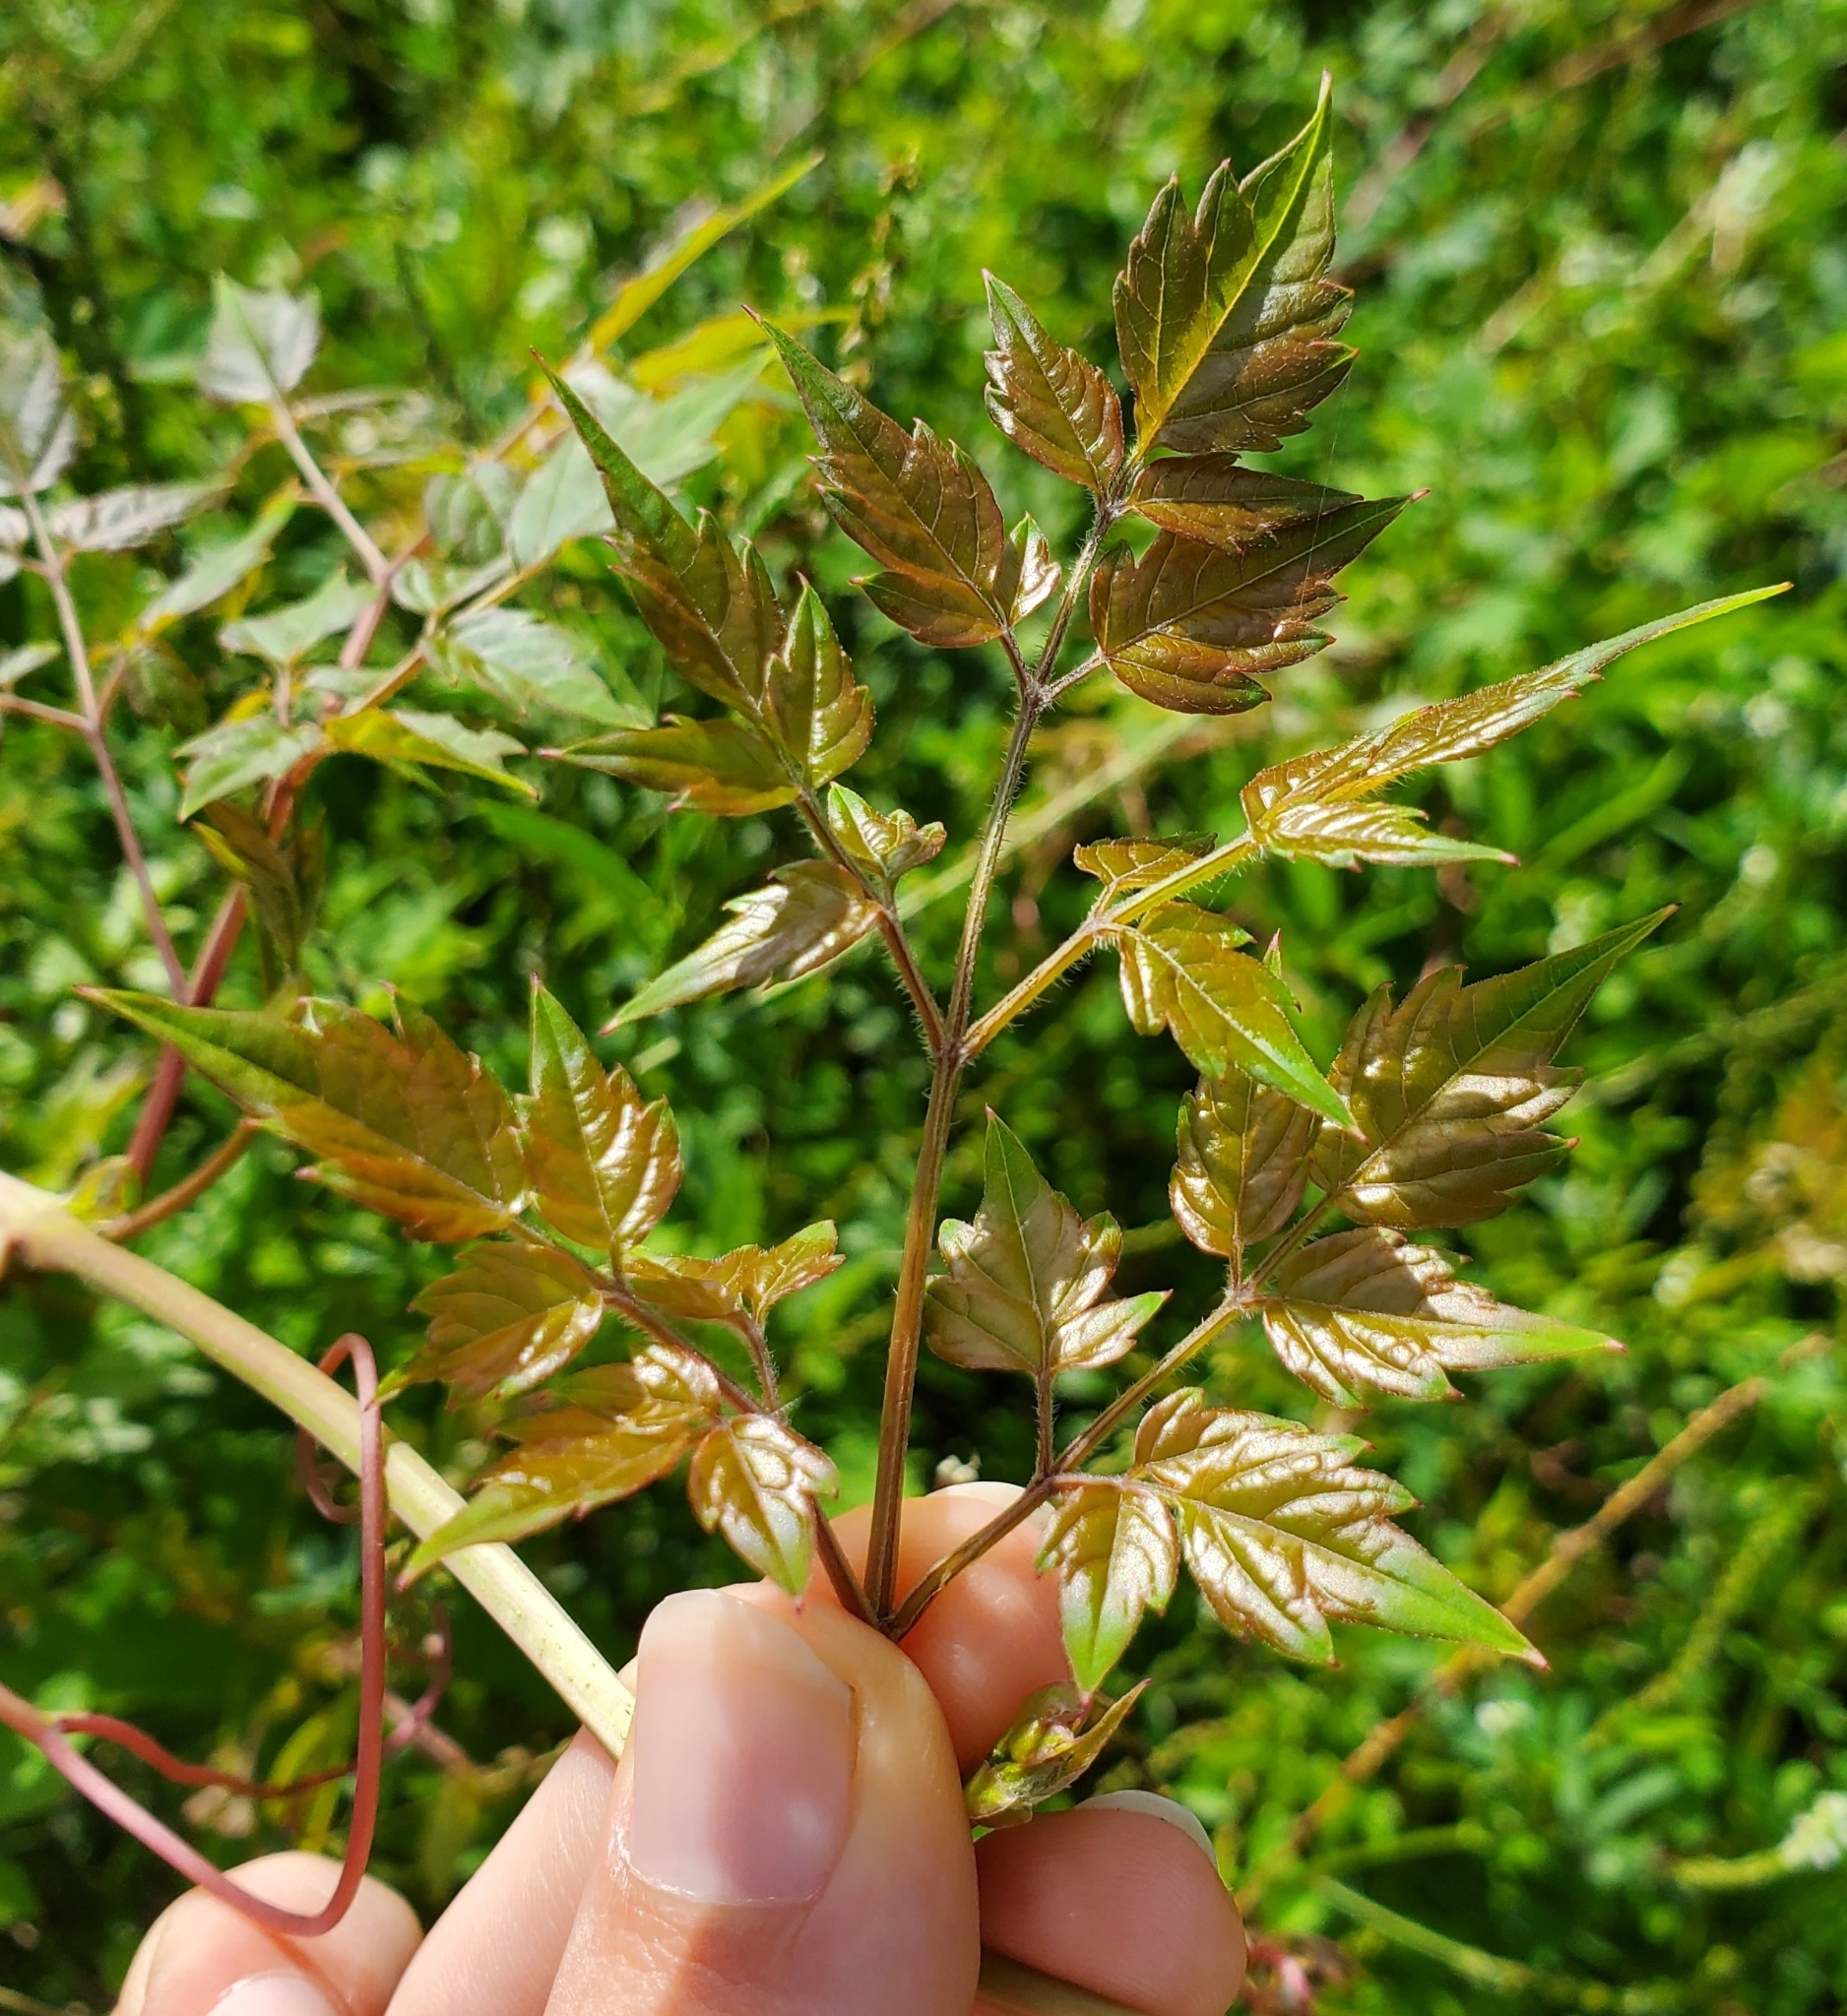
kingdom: Plantae
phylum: Tracheophyta
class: Magnoliopsida
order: Vitales
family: Vitaceae
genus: Nekemias
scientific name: Nekemias arborea
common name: Peppervine
